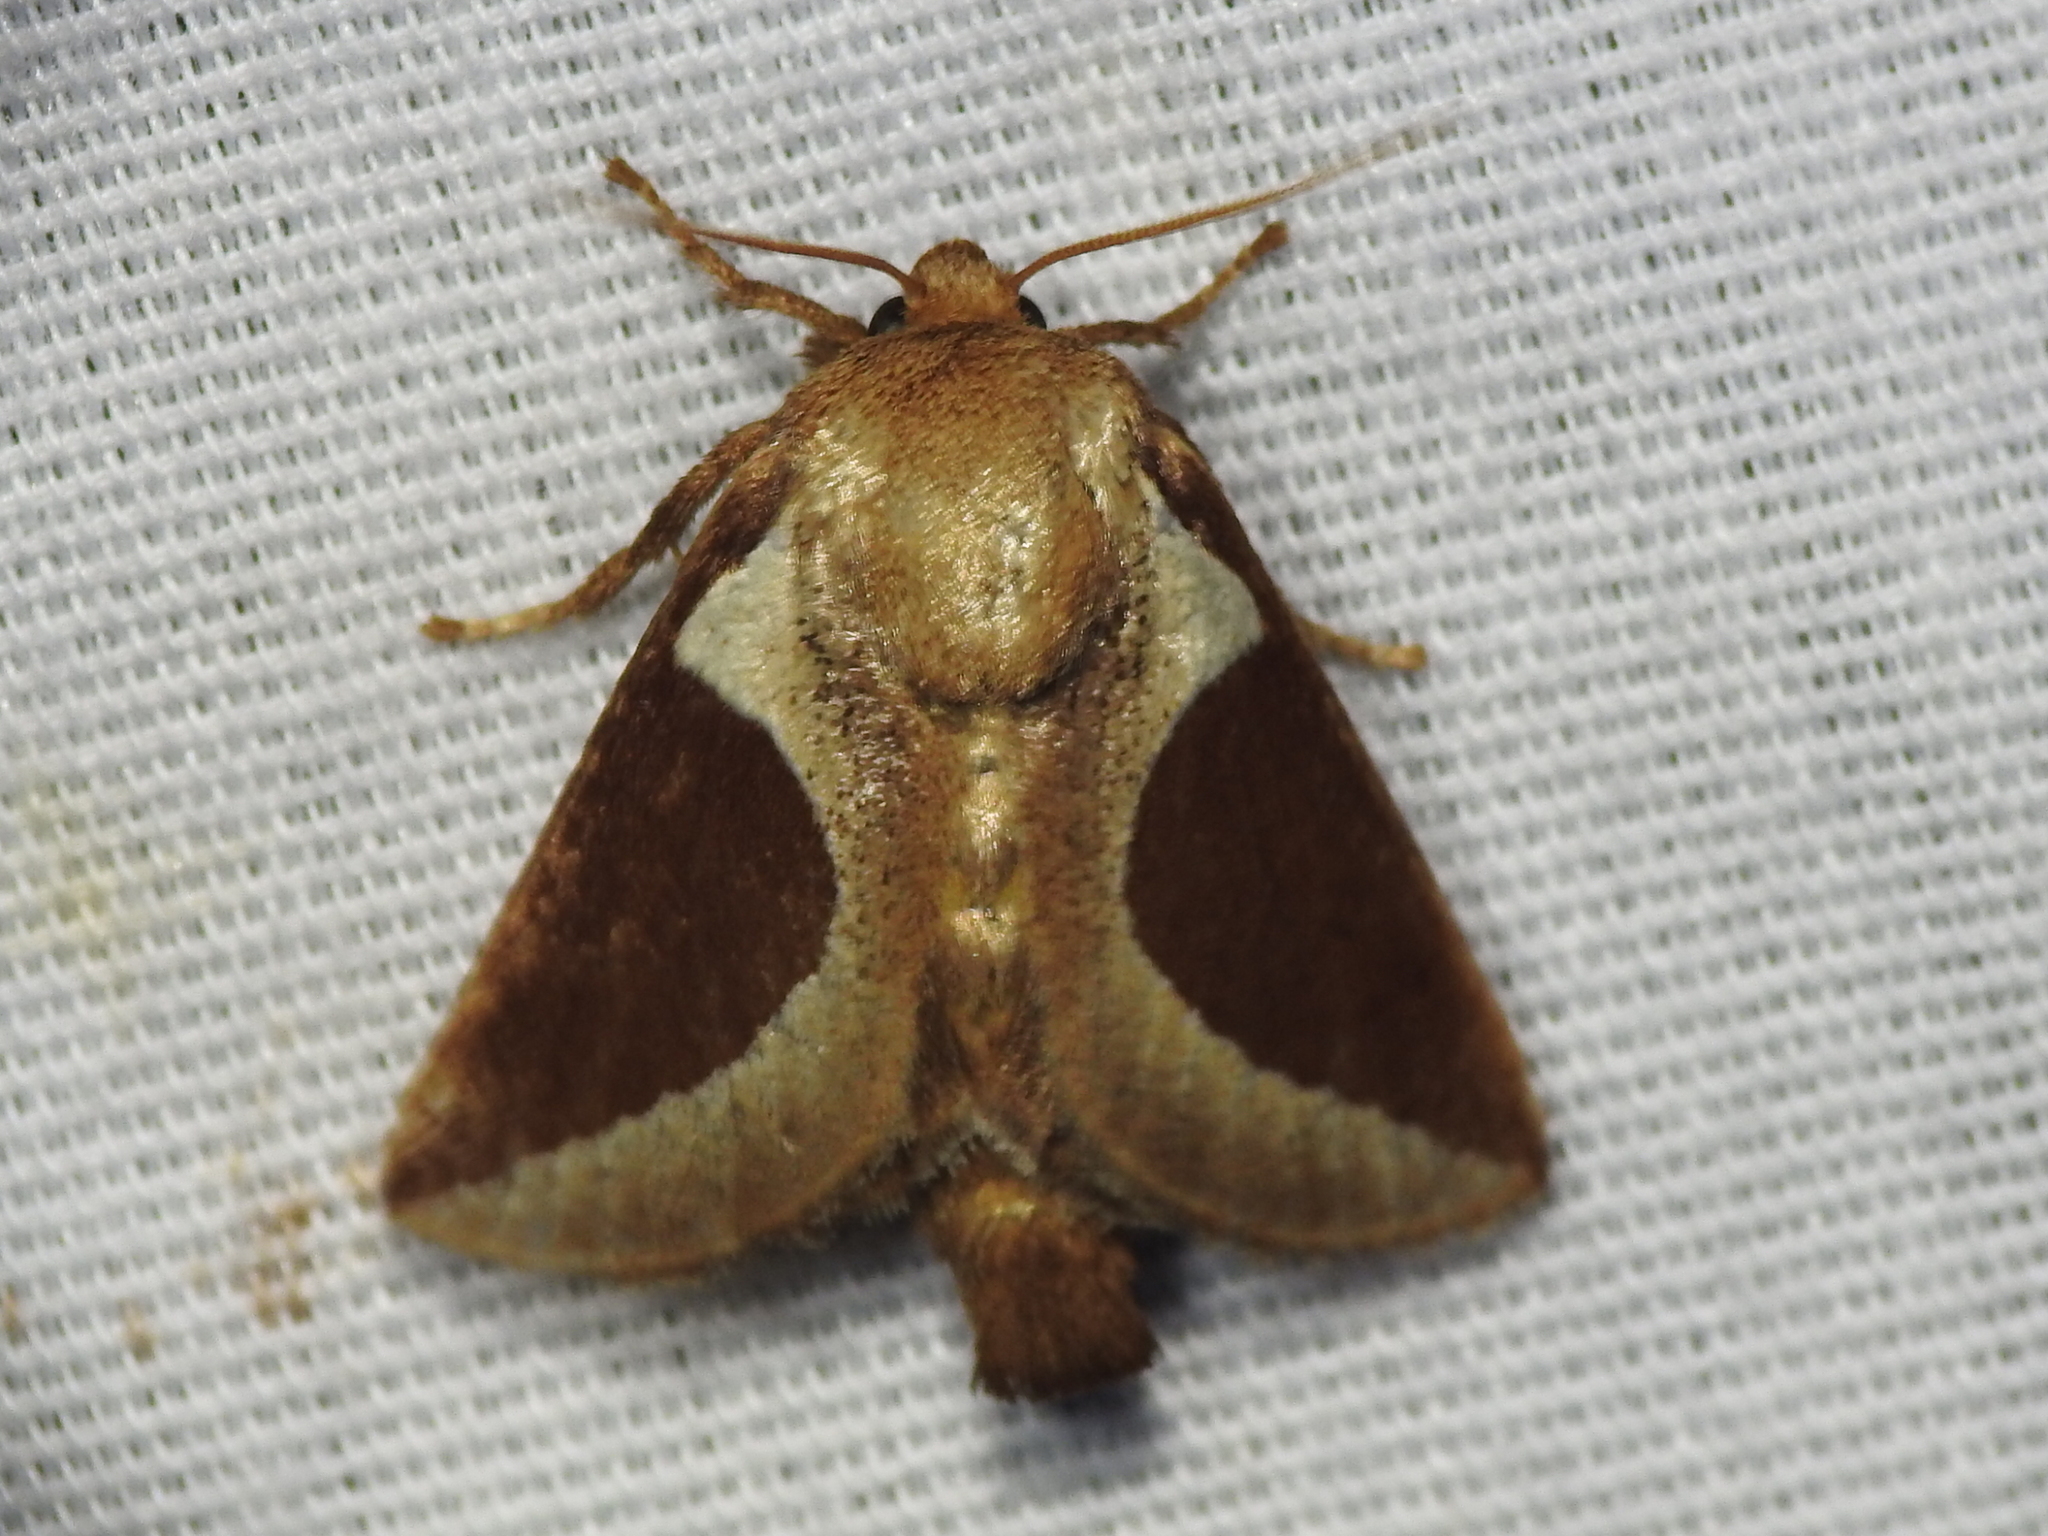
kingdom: Animalia
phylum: Arthropoda
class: Insecta
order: Lepidoptera
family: Limacodidae
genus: Prolimacodes
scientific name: Prolimacodes badia
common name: Skiff moth
